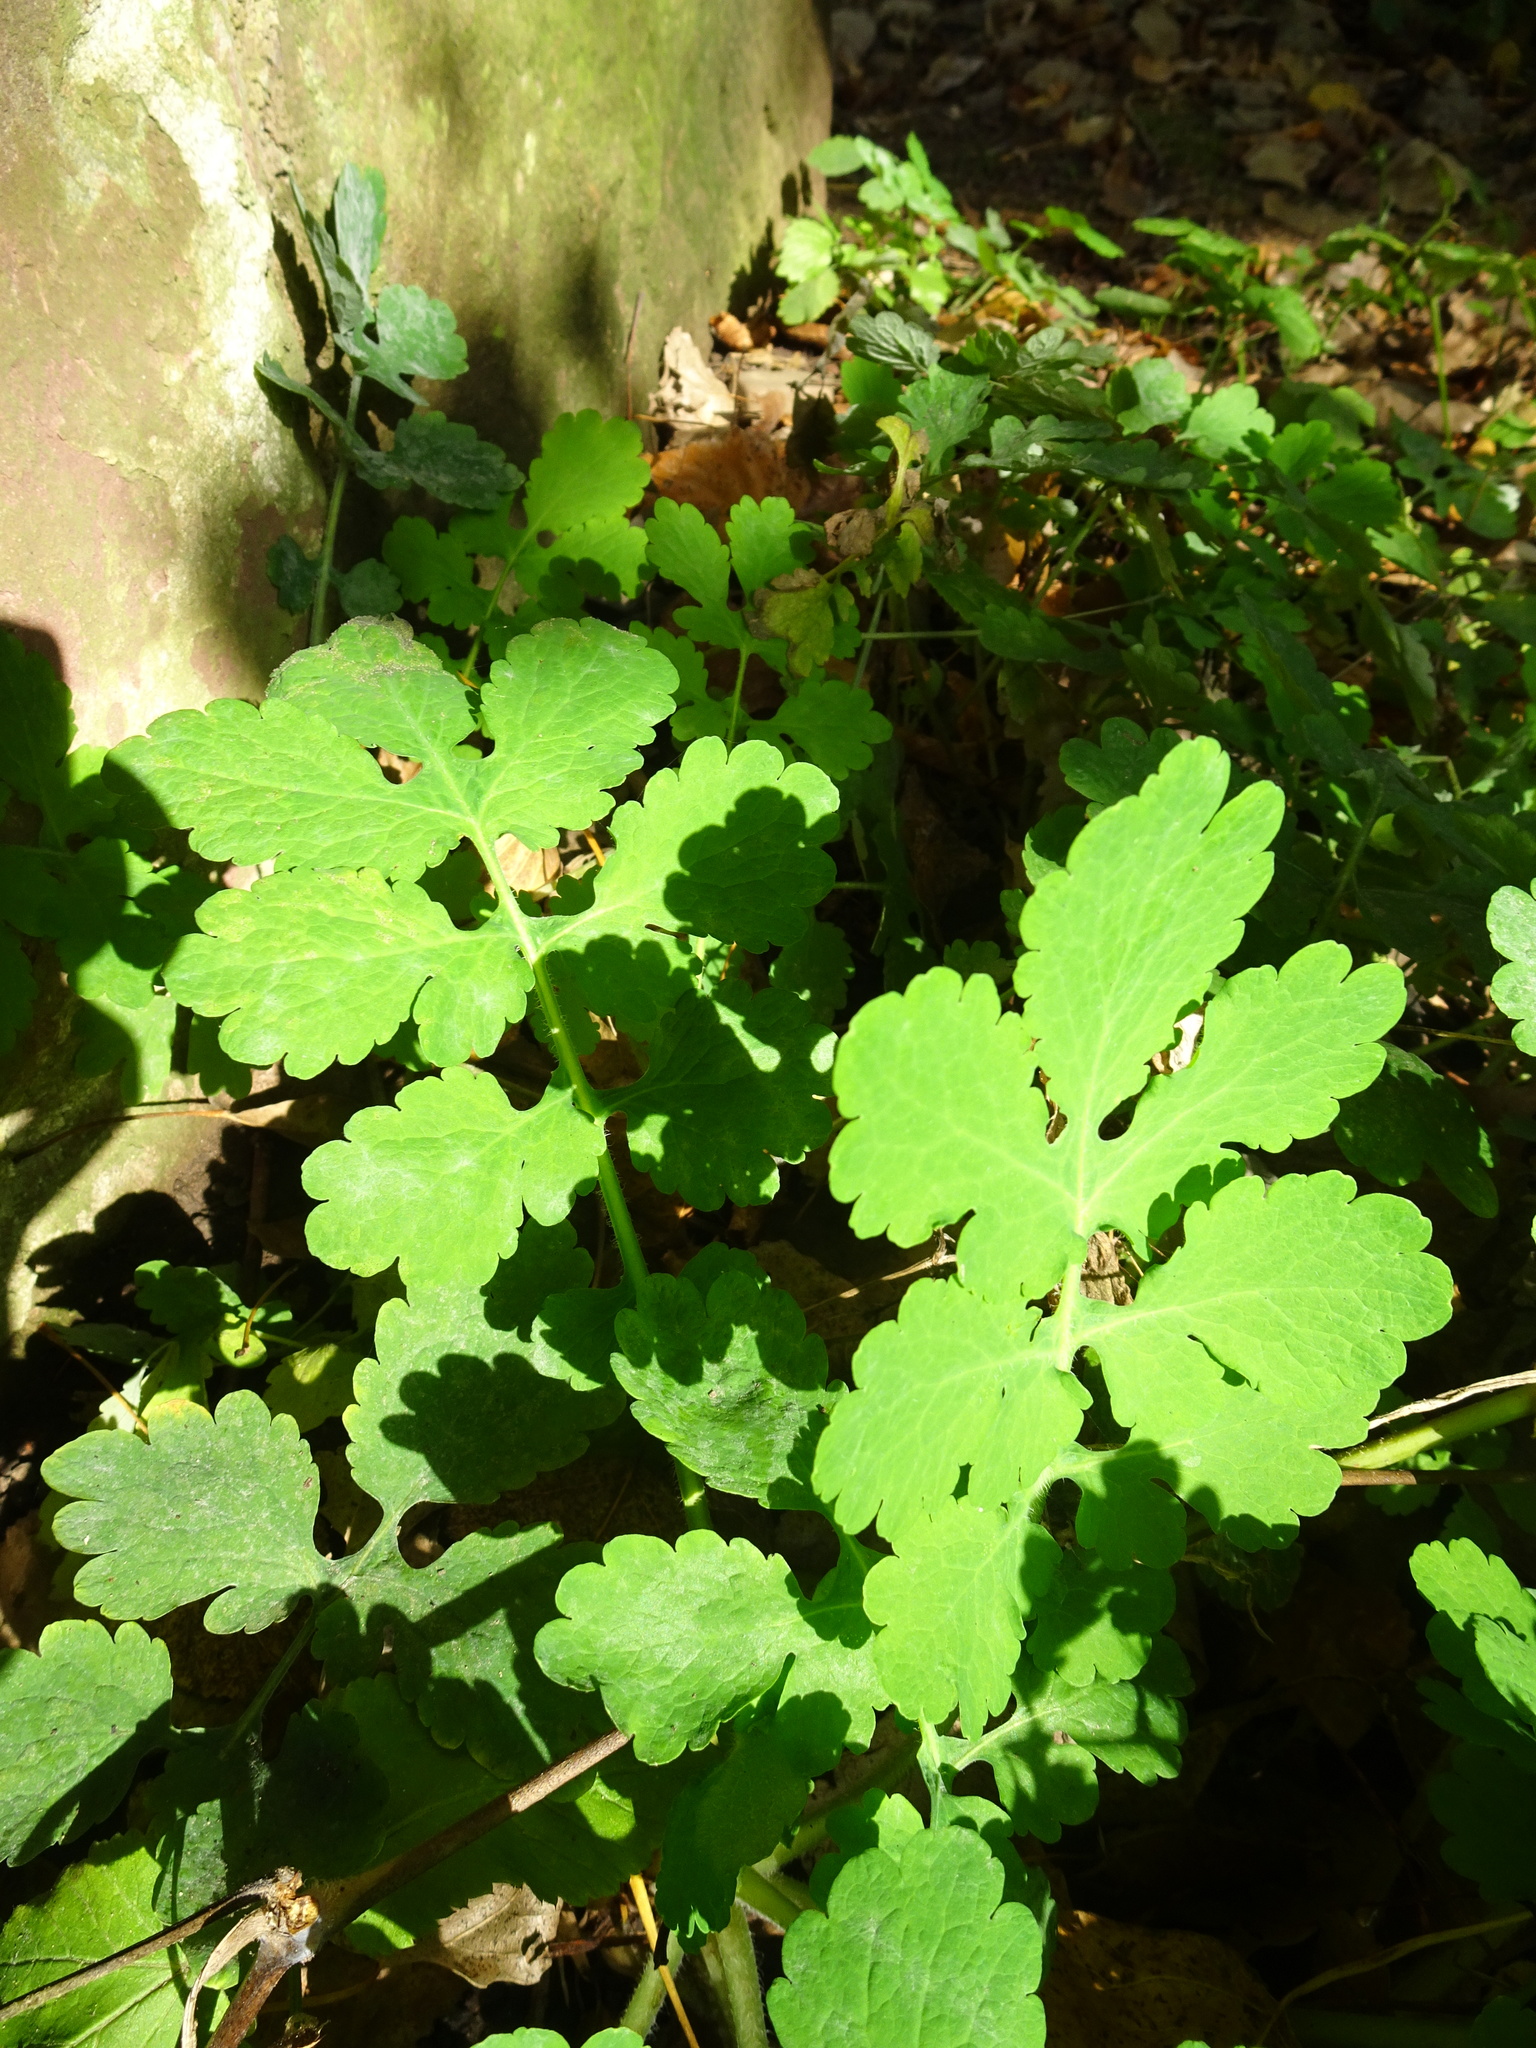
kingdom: Plantae
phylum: Tracheophyta
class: Magnoliopsida
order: Ranunculales
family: Papaveraceae
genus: Chelidonium
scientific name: Chelidonium majus
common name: Greater celandine
